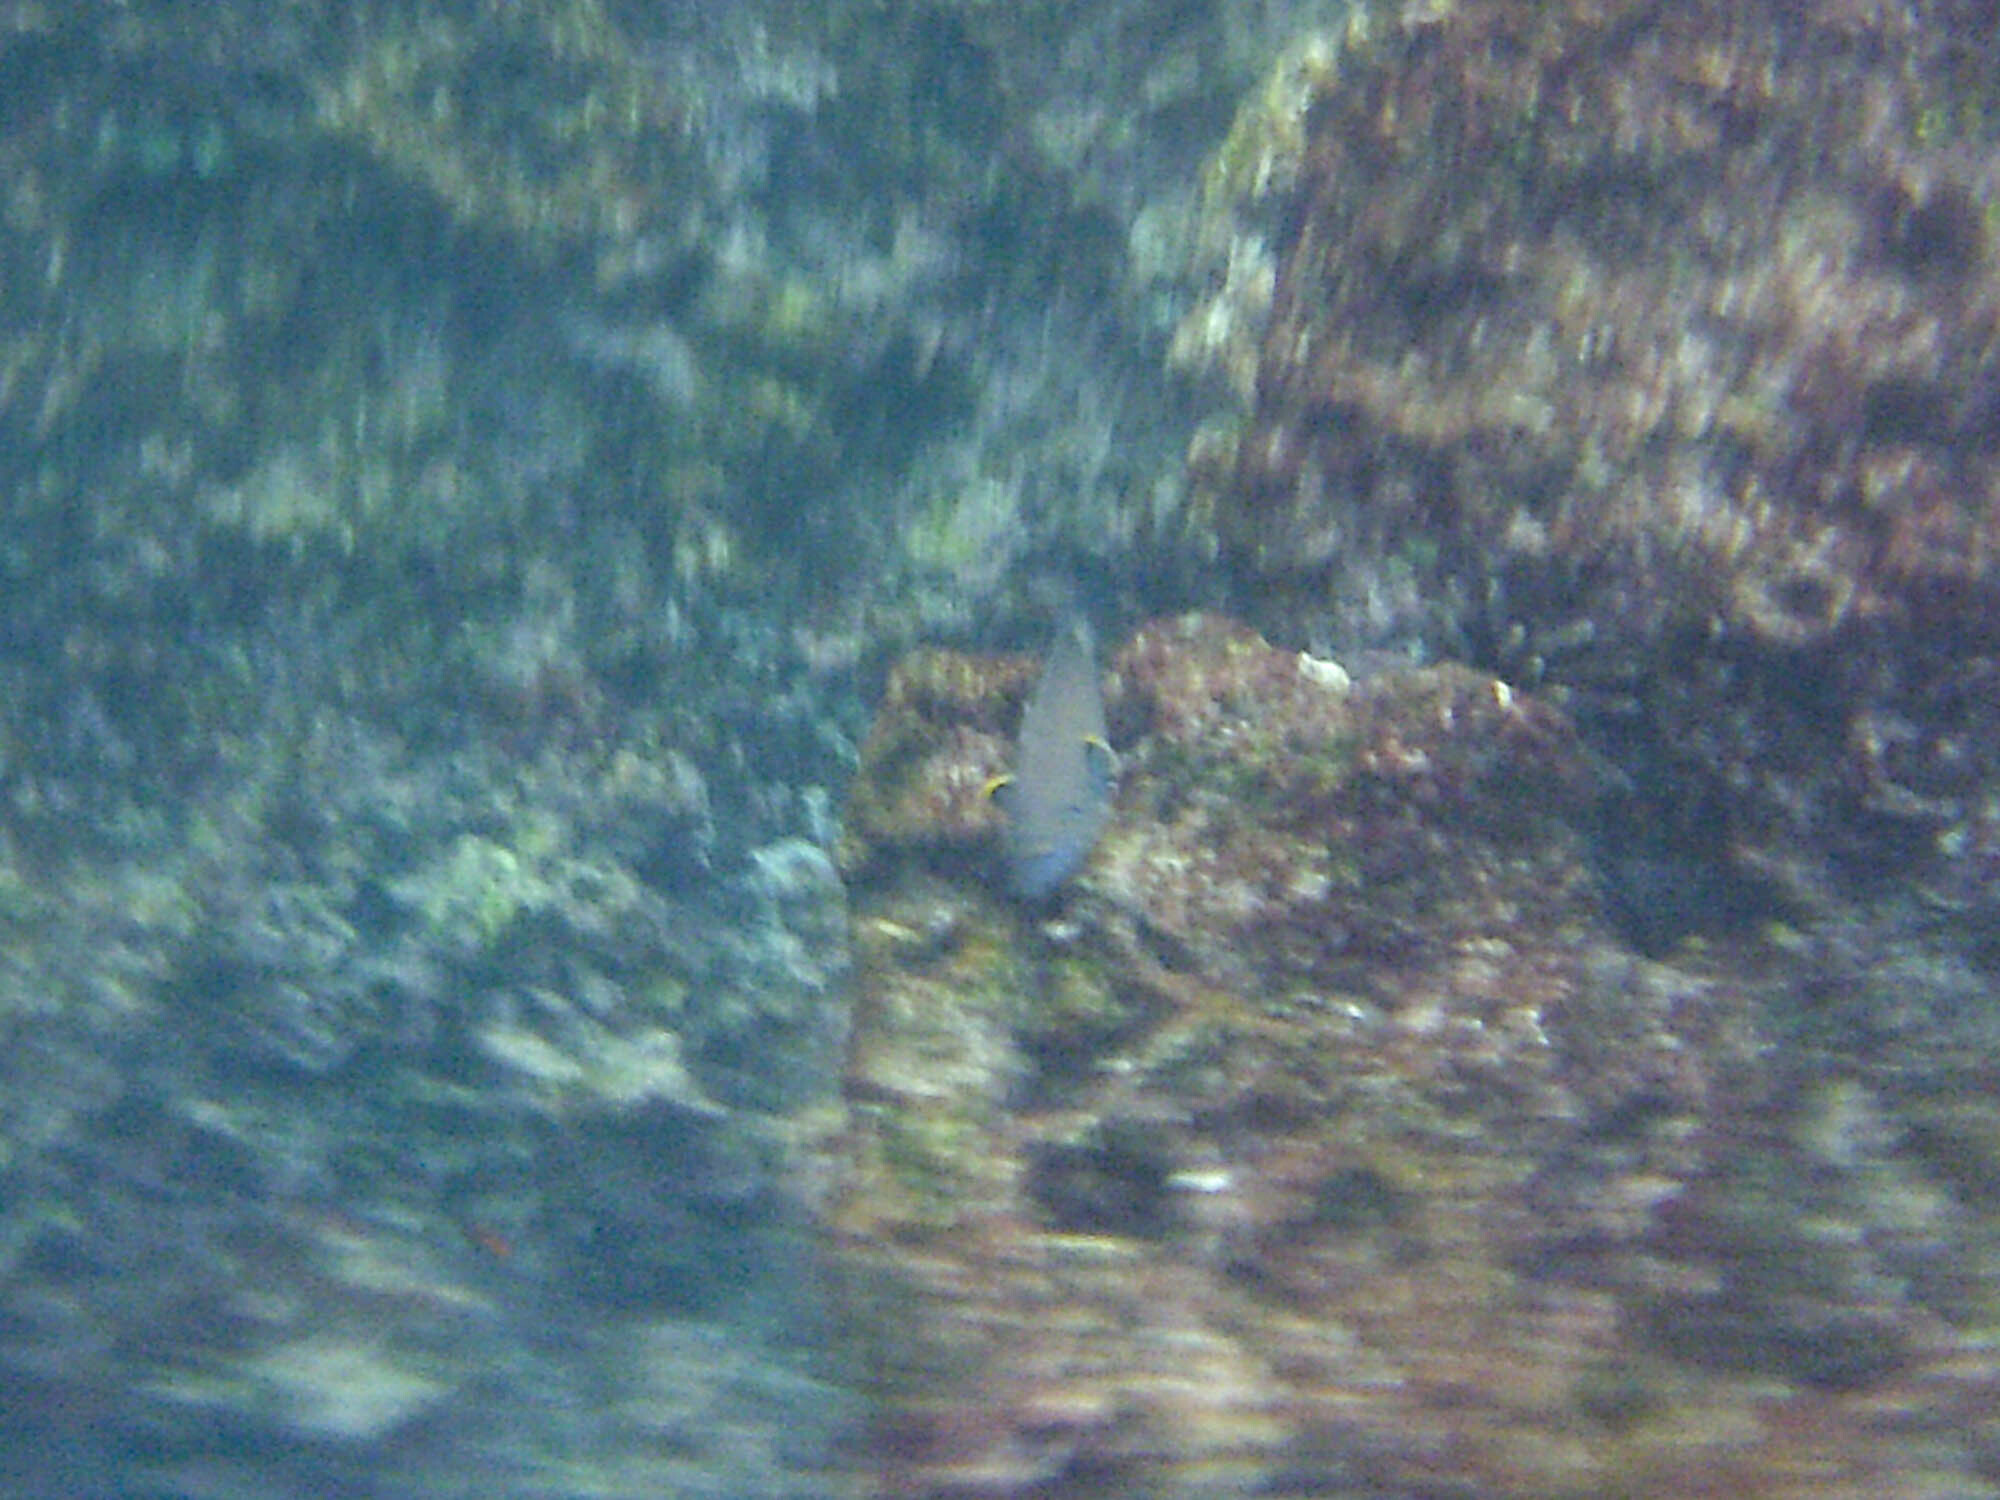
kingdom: Animalia
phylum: Chordata
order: Perciformes
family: Pomacentridae
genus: Stegastes
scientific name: Stegastes beebei
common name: Galapagos ringtail damselfish
